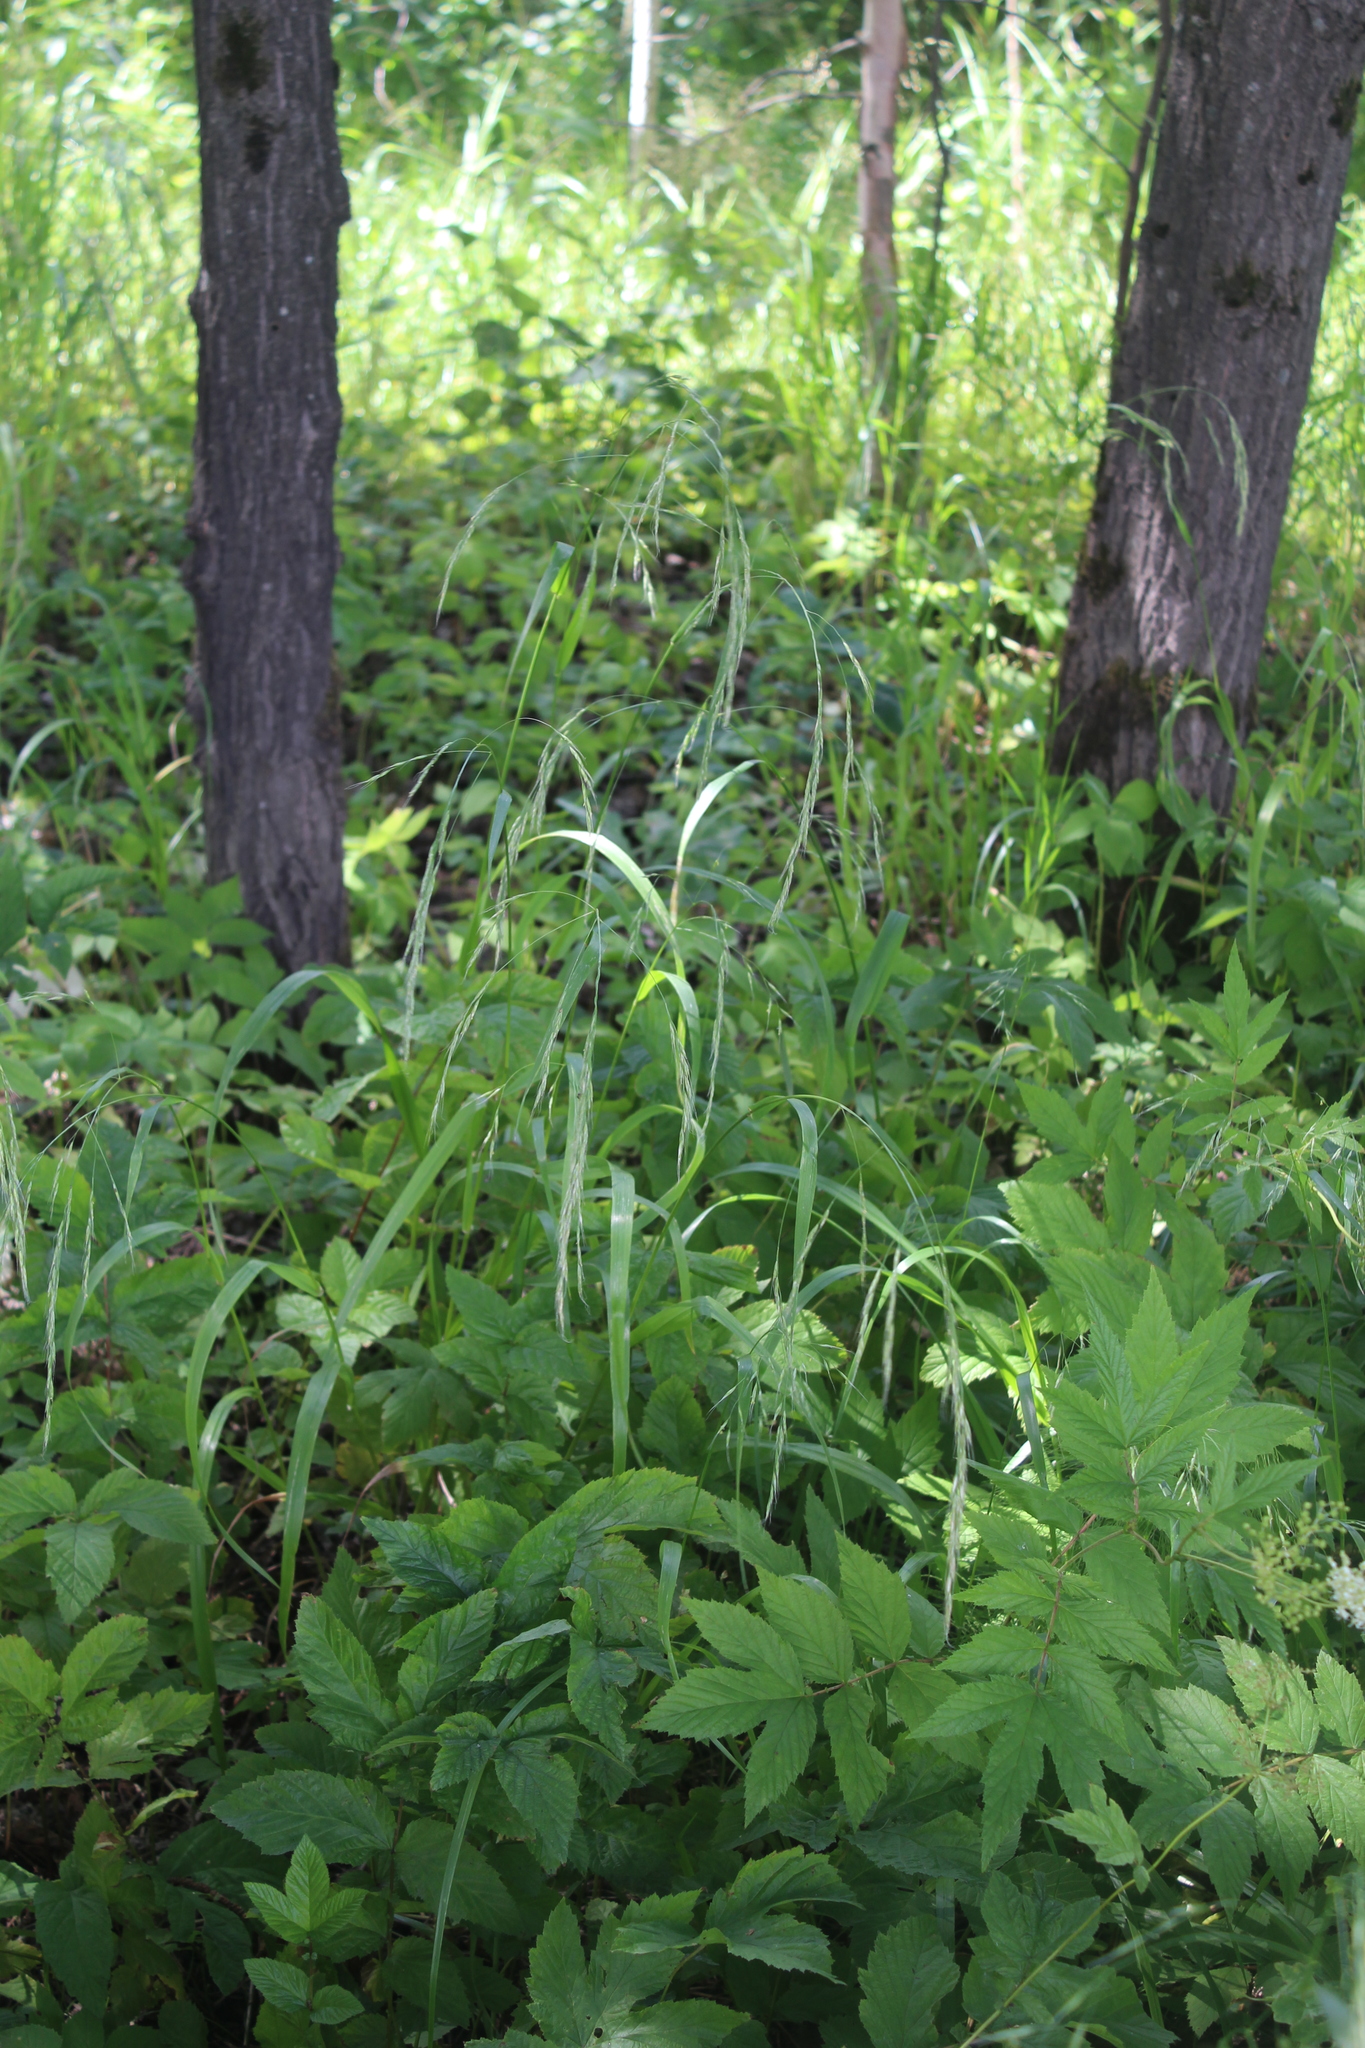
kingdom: Plantae
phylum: Tracheophyta
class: Liliopsida
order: Poales
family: Poaceae
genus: Lolium
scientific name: Lolium giganteum
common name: Giant fescue
